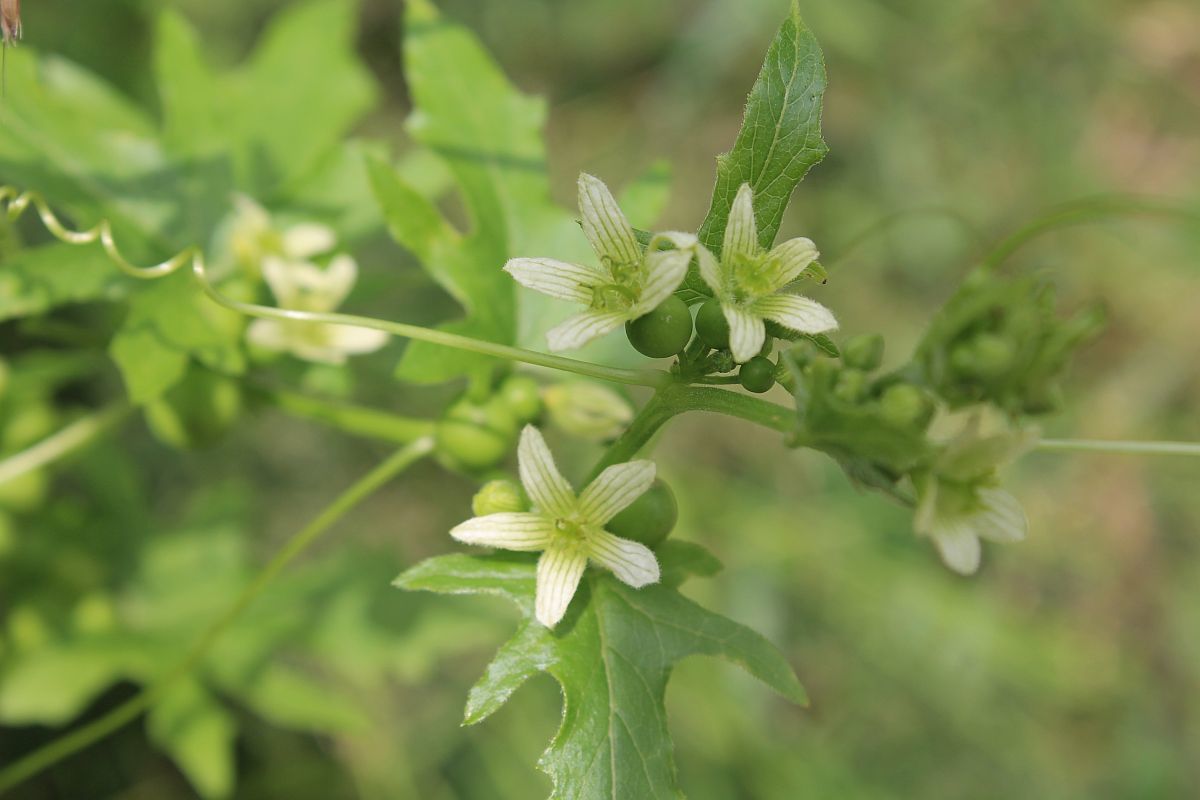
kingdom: Plantae
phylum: Tracheophyta
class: Magnoliopsida
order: Cucurbitales
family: Cucurbitaceae
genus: Bryonia
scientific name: Bryonia cretica
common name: Cretan bryony
